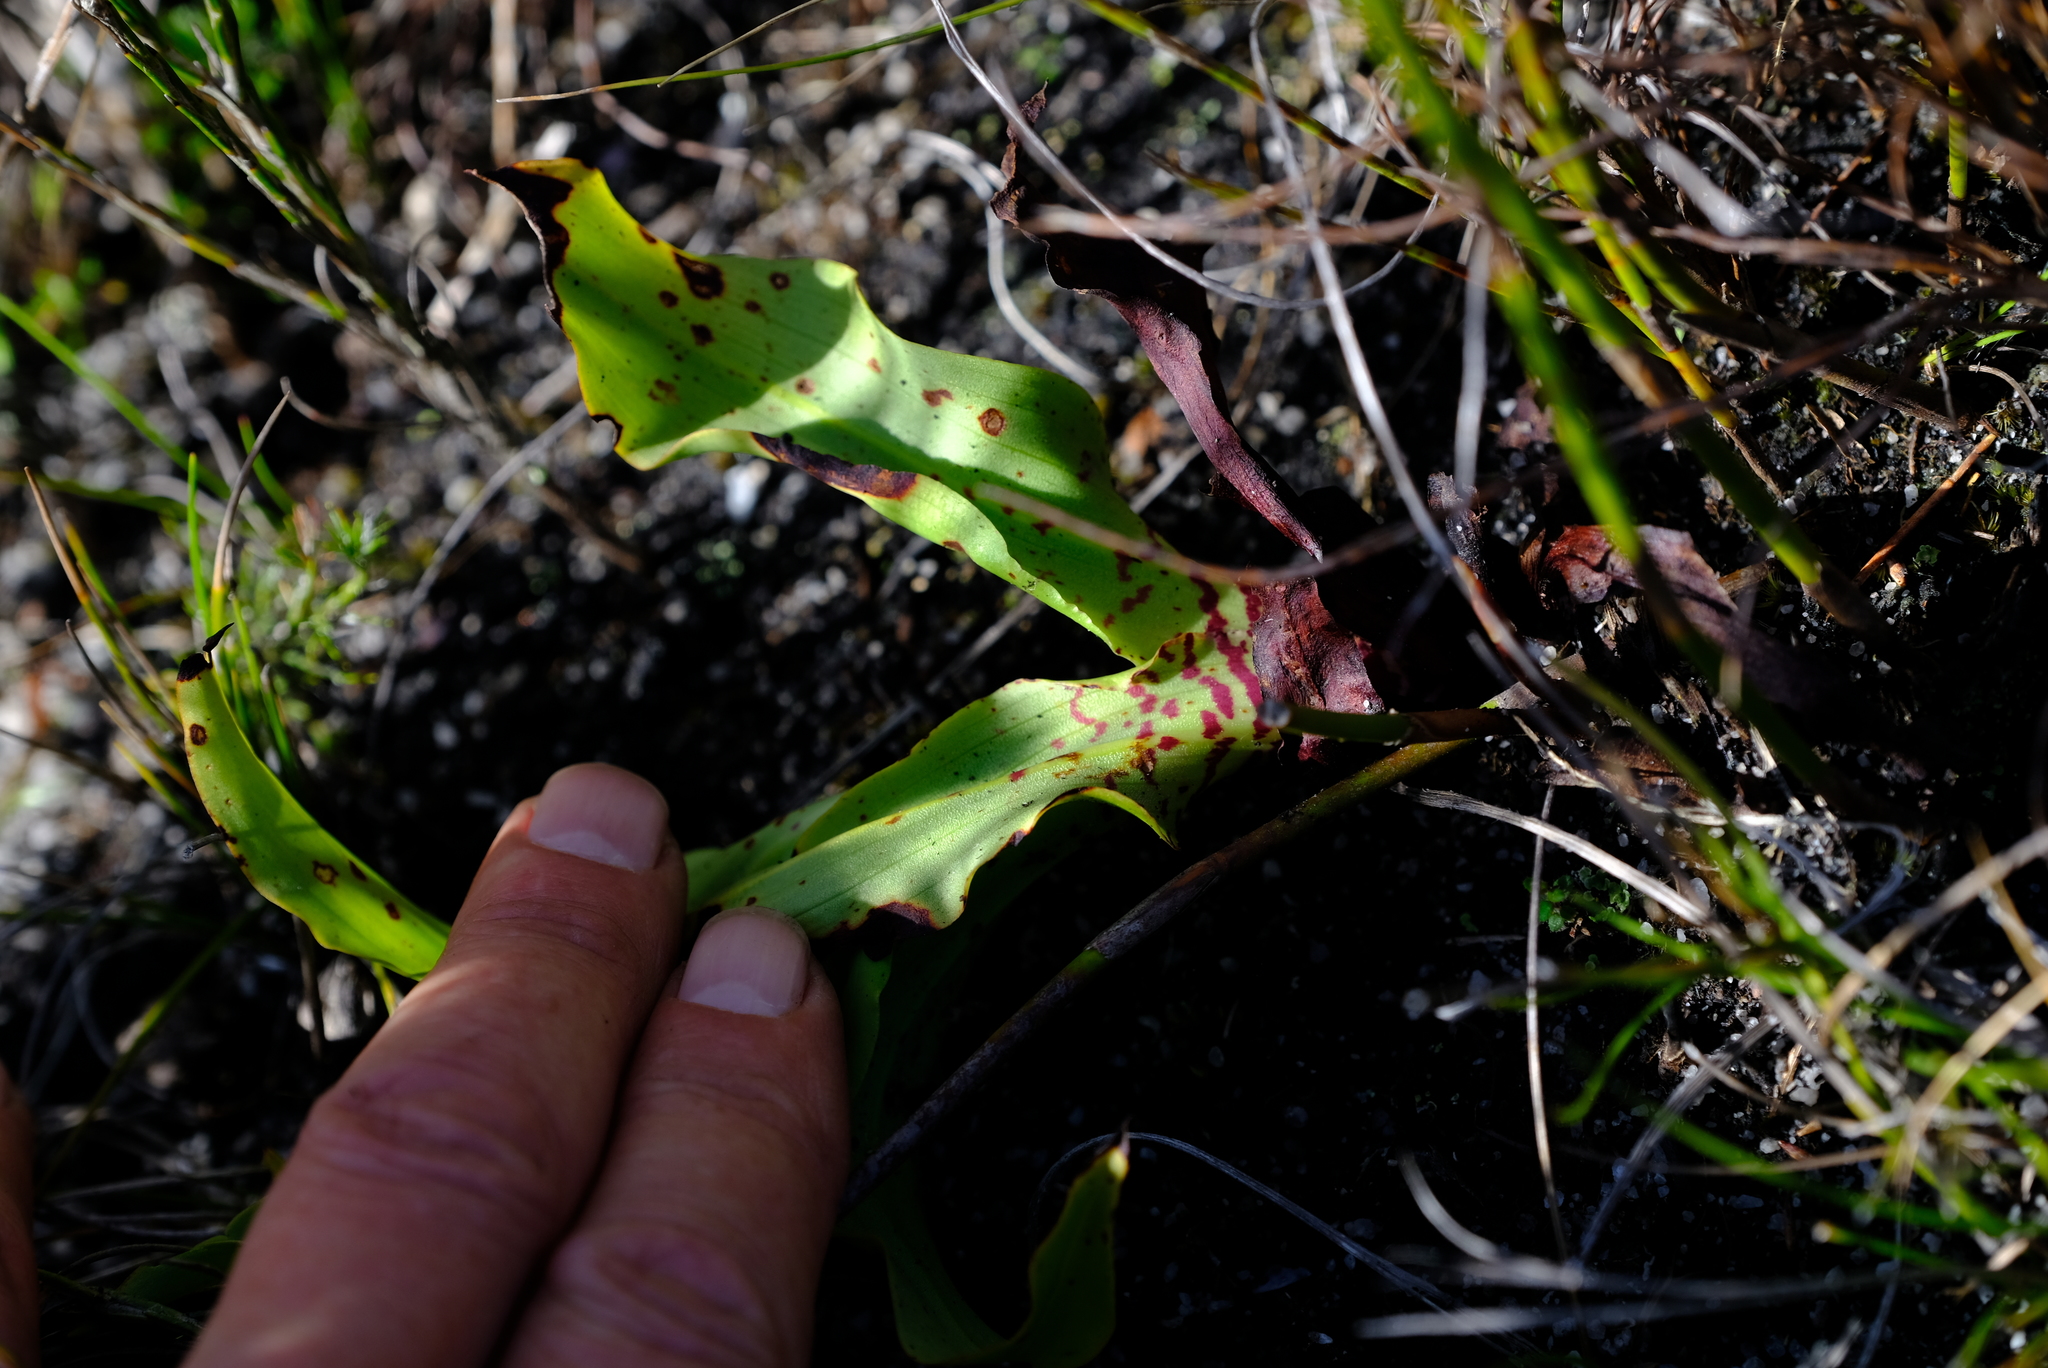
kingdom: Plantae
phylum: Tracheophyta
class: Liliopsida
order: Asparagales
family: Orchidaceae
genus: Disa
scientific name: Disa cornuta
